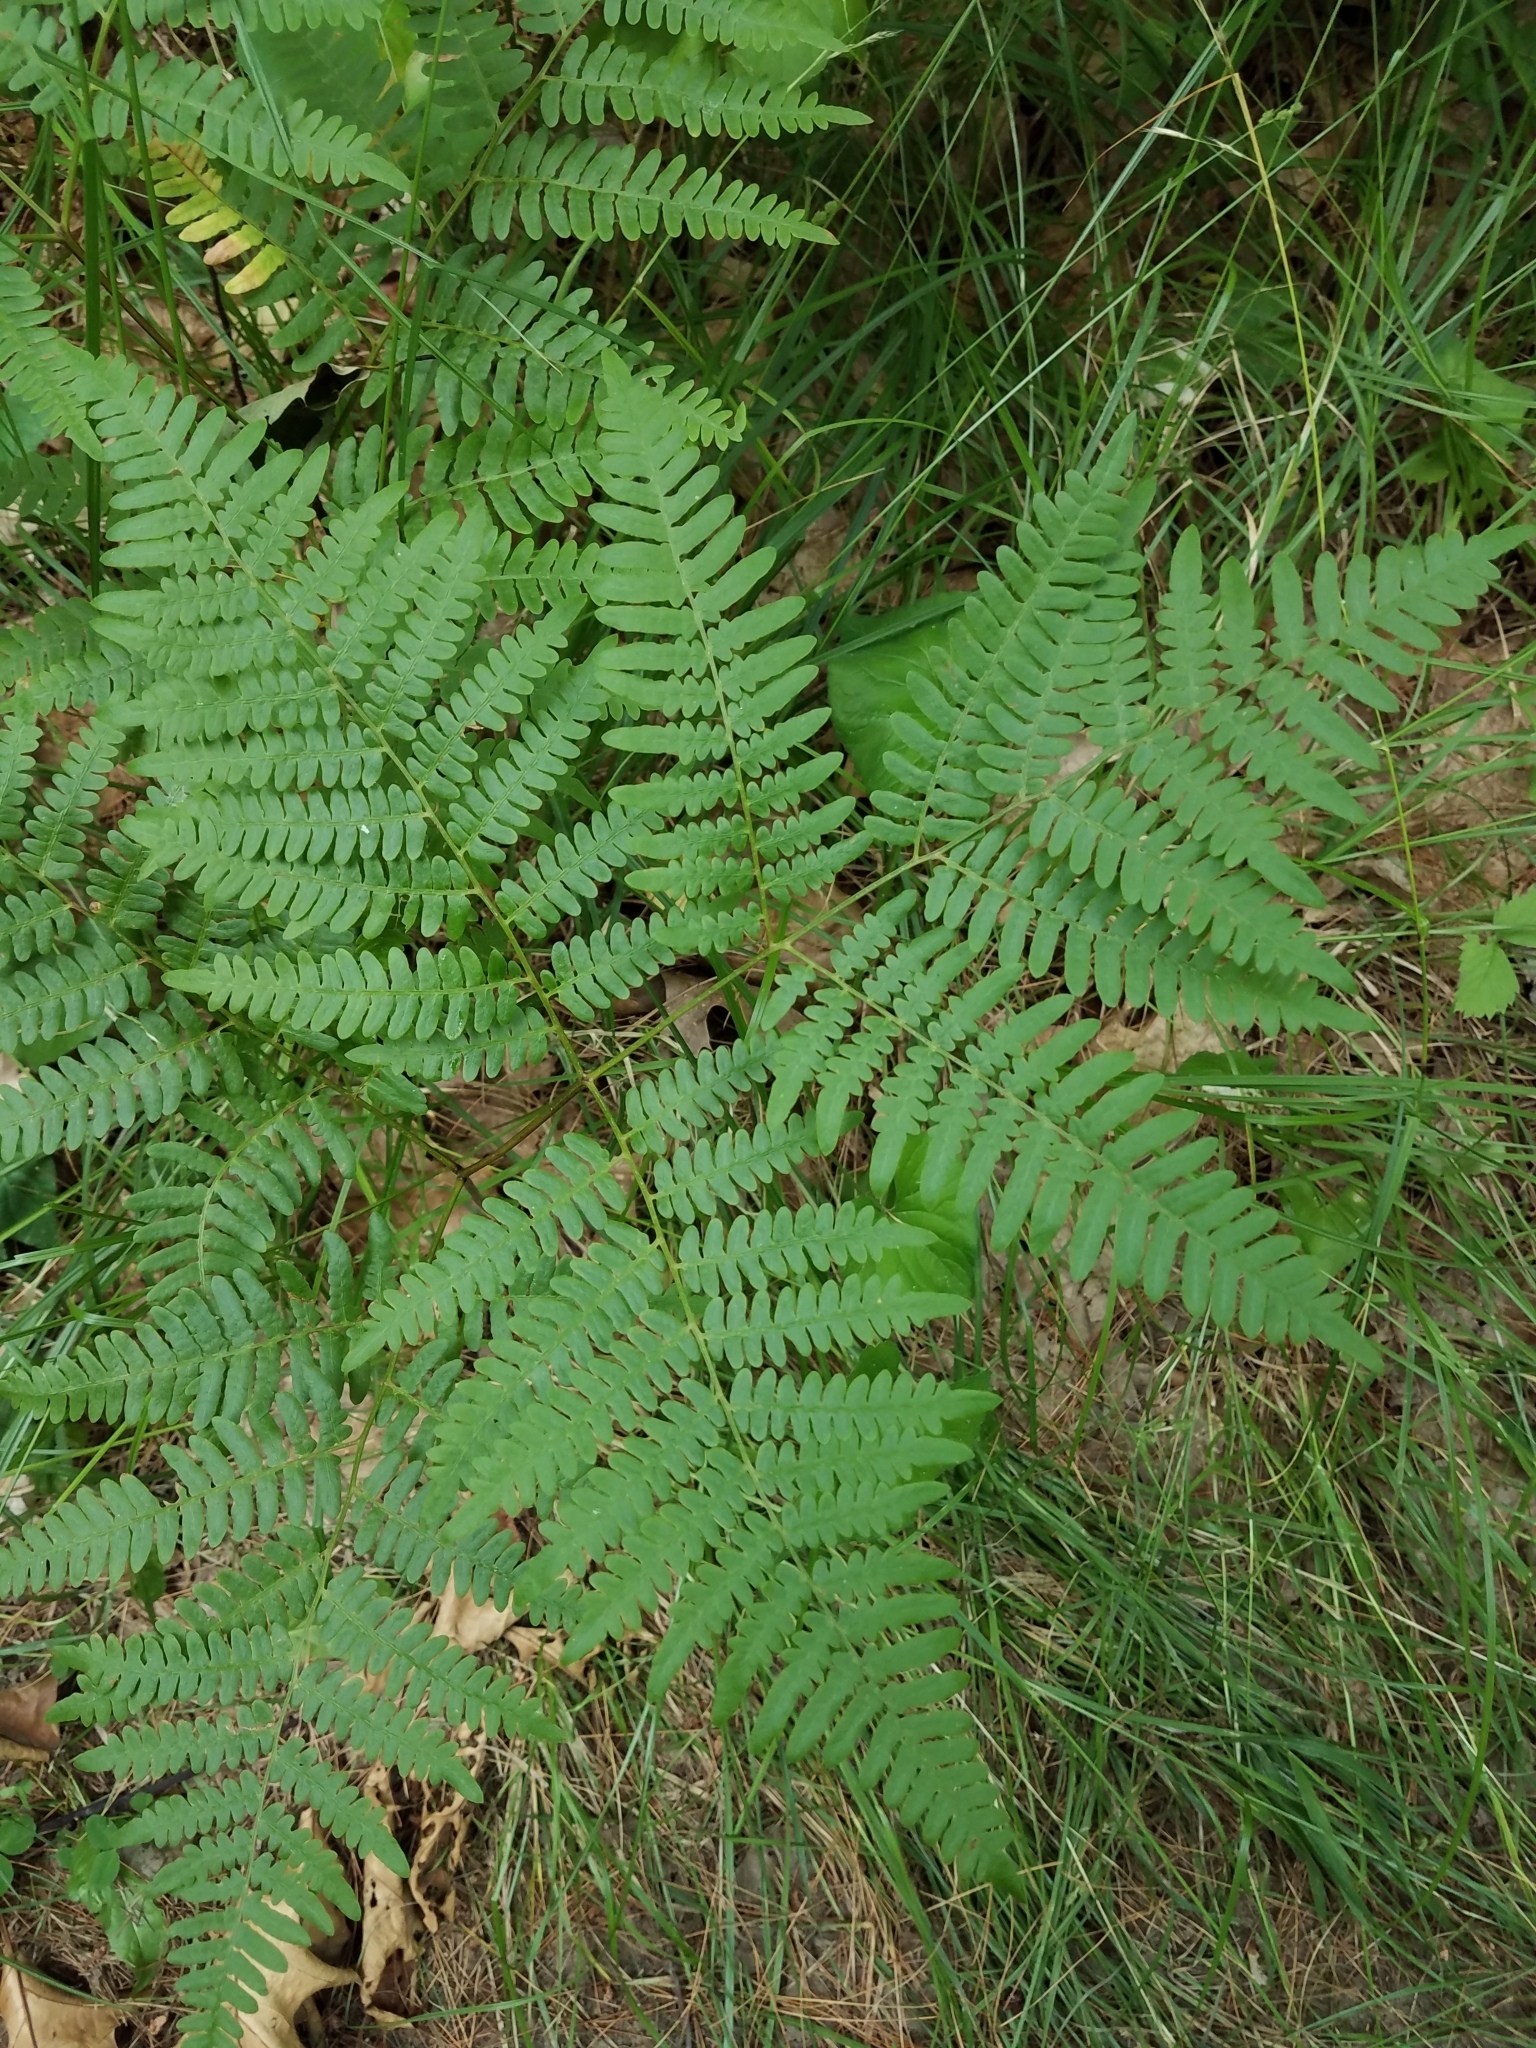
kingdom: Plantae
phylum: Tracheophyta
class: Polypodiopsida
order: Polypodiales
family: Dennstaedtiaceae
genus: Pteridium
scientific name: Pteridium aquilinum
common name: Bracken
